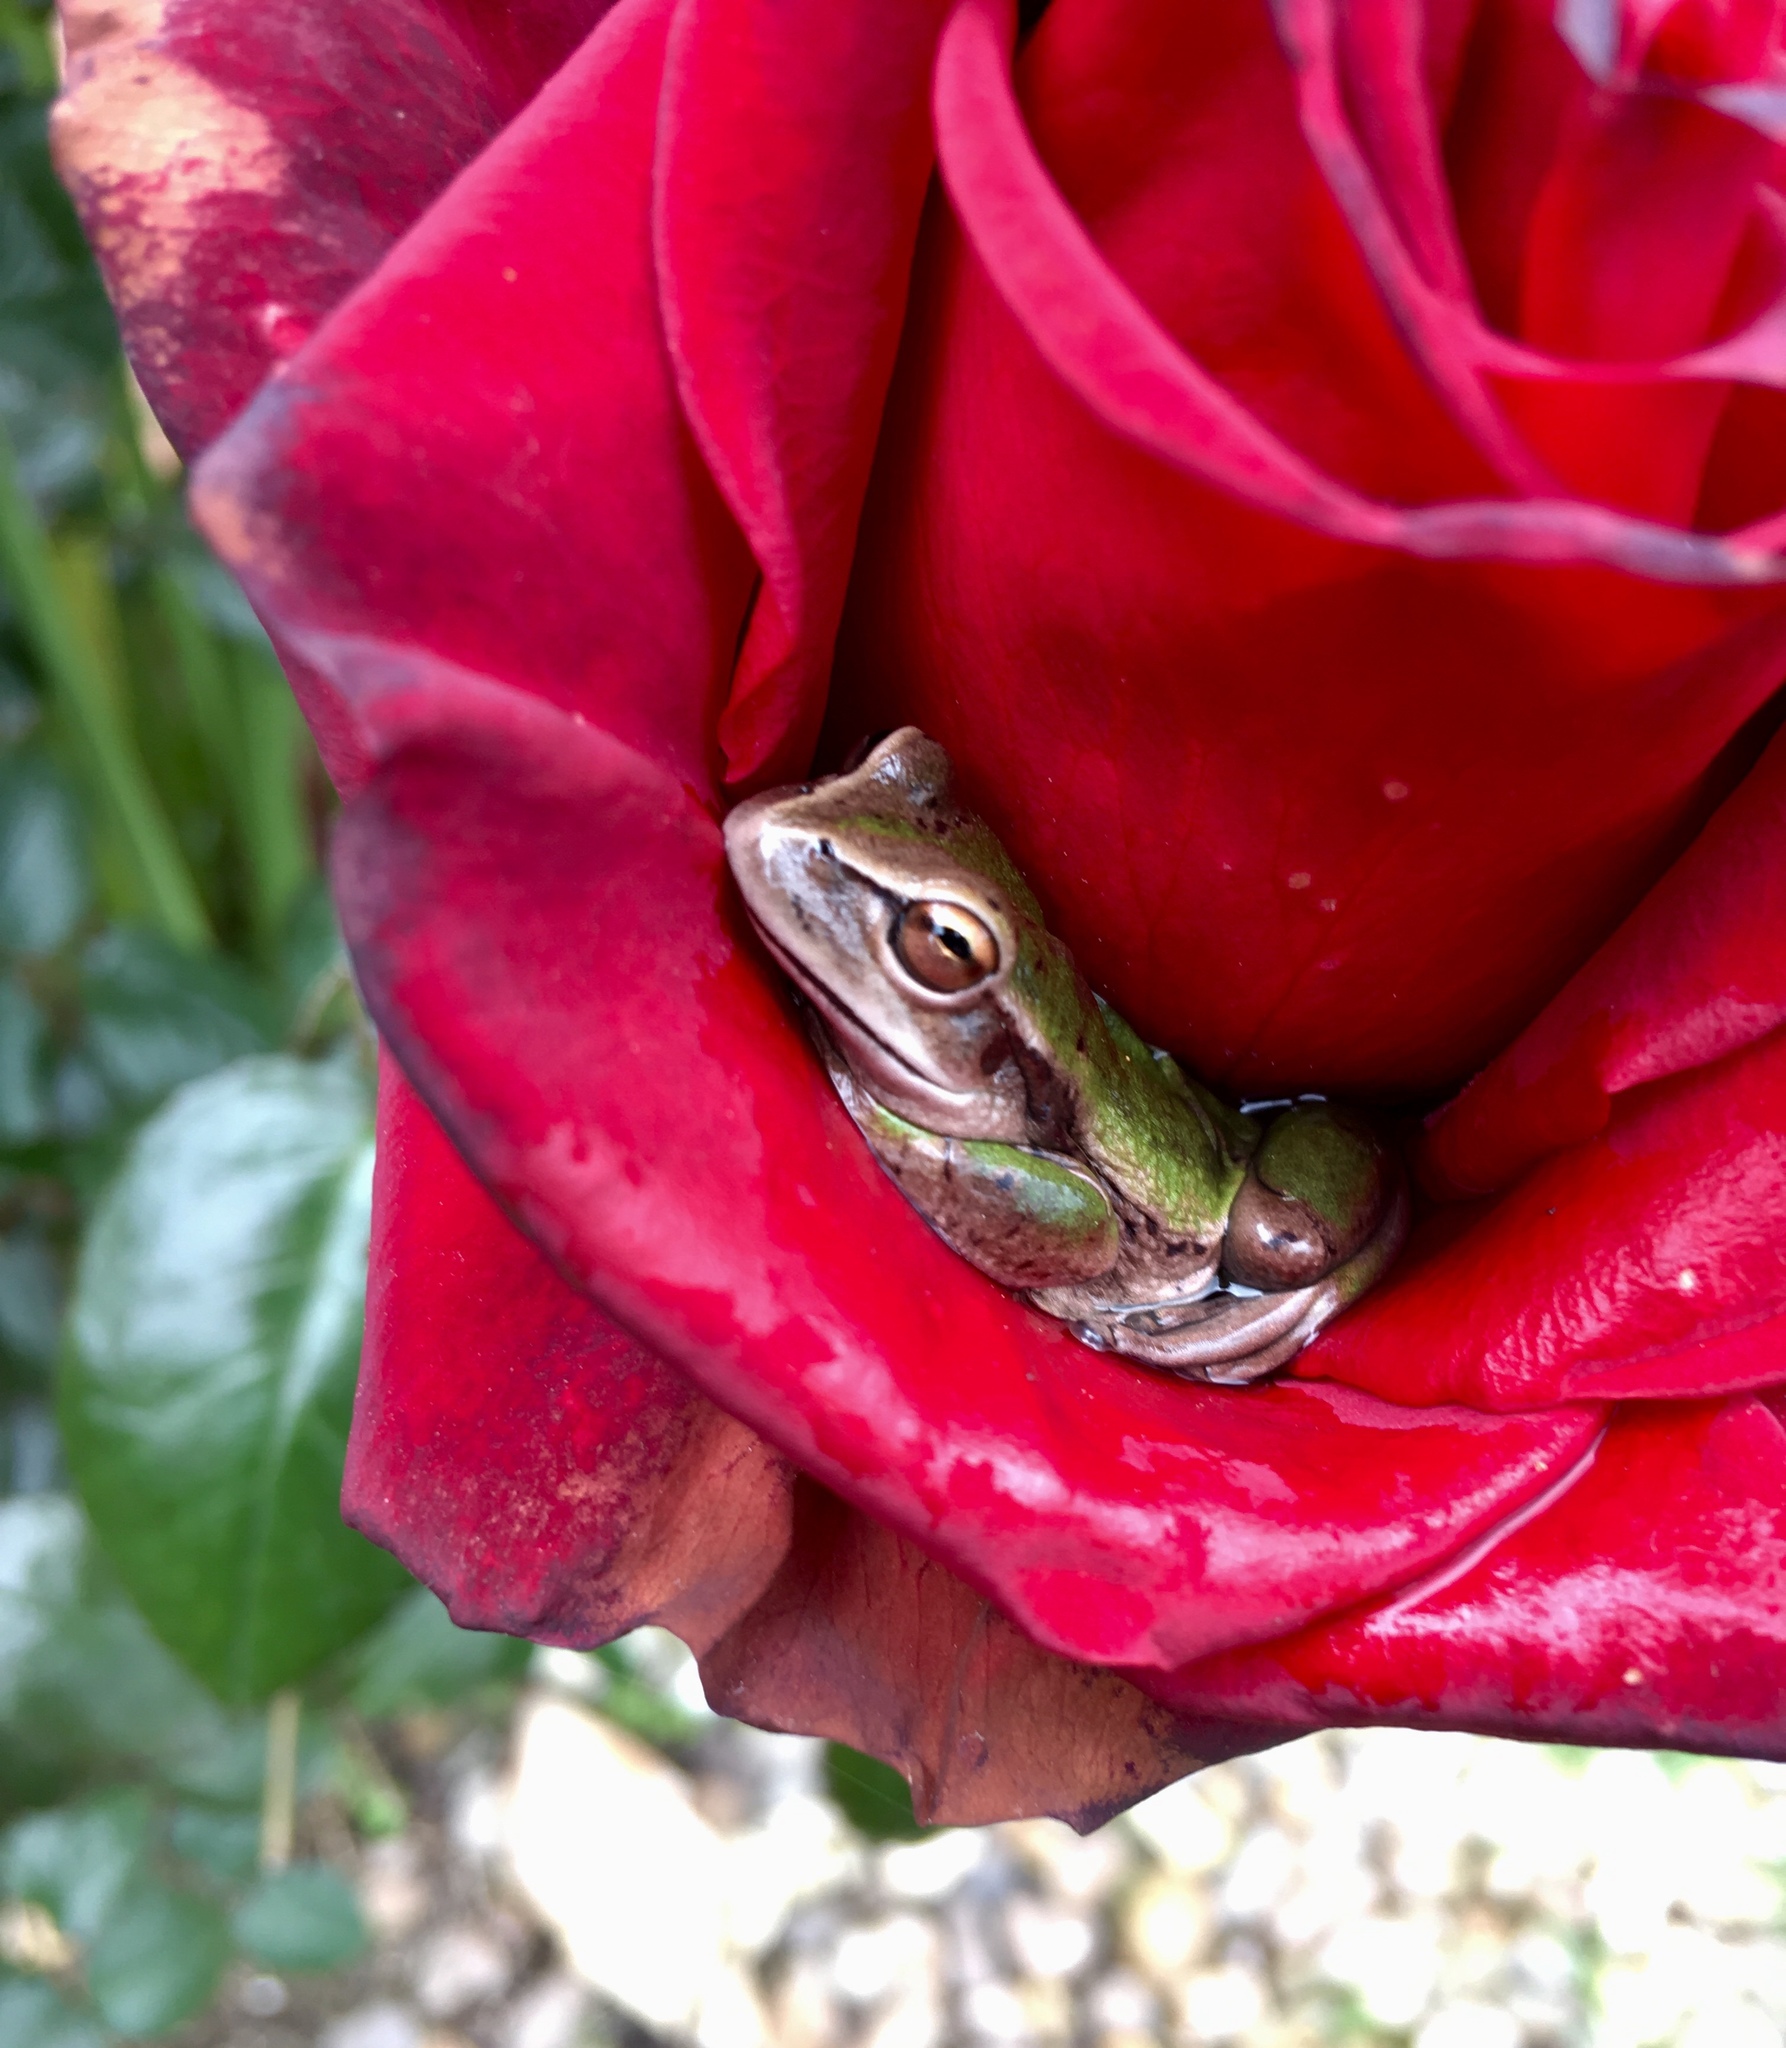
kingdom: Animalia
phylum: Chordata
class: Amphibia
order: Anura
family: Hylidae
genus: Dendropsophus
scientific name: Dendropsophus molitor
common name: Green dotted treefrog
